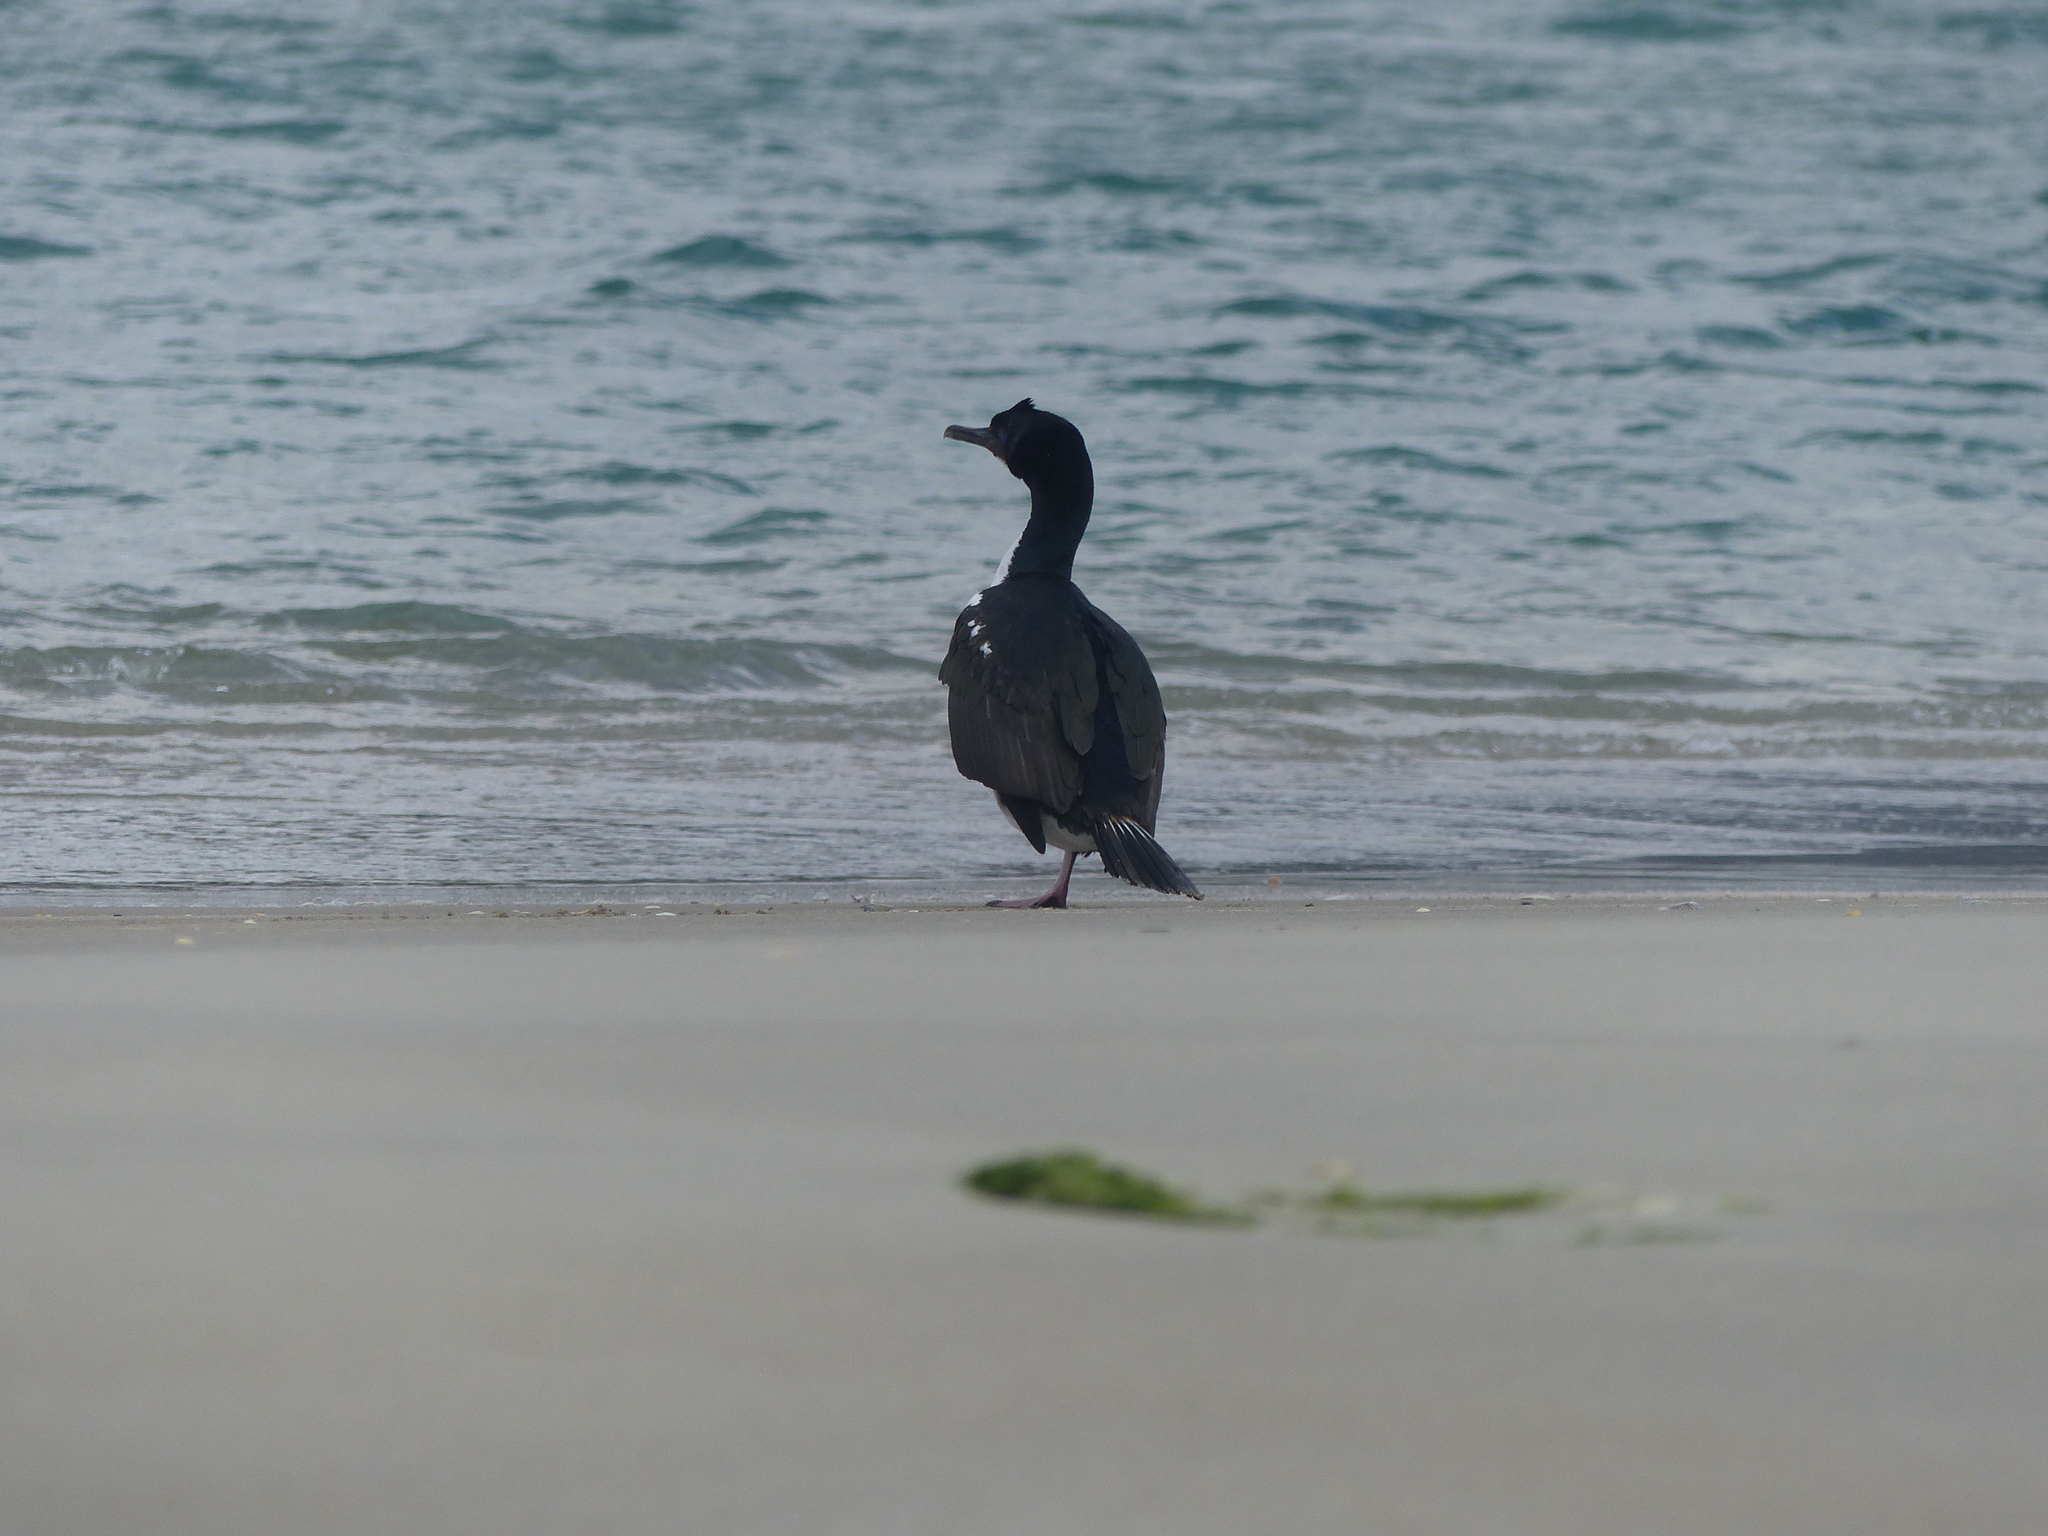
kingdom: Animalia
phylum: Chordata
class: Aves
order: Suliformes
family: Phalacrocoracidae
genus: Leucocarbo
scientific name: Leucocarbo chalconotus
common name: Stewart shag
